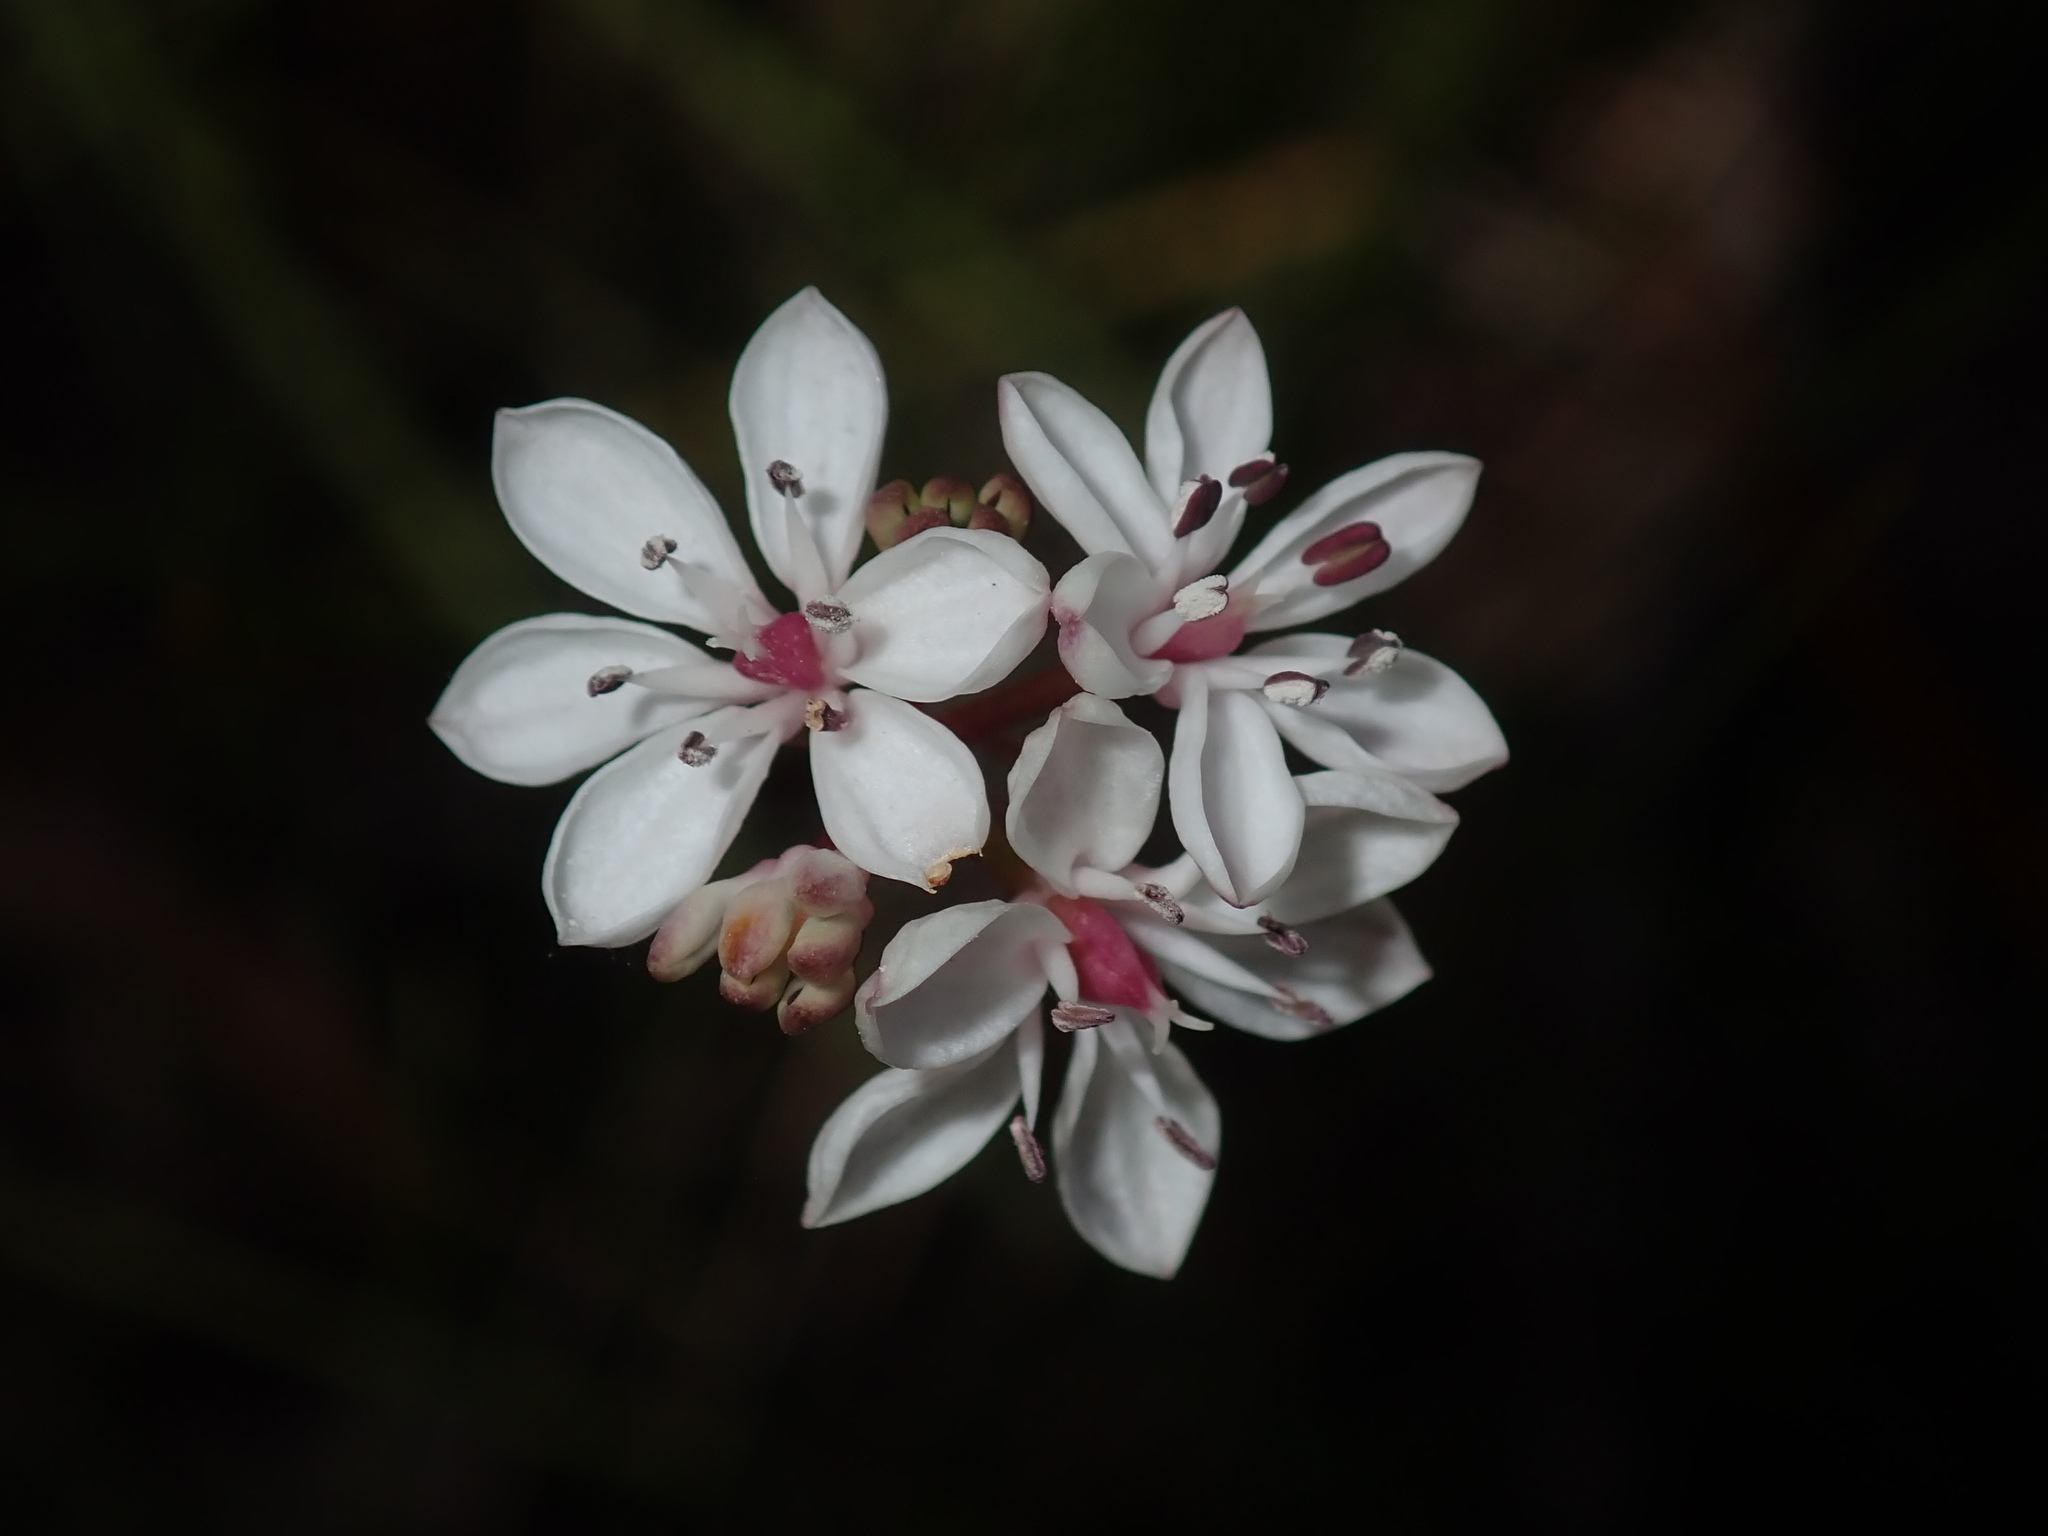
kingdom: Plantae
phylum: Tracheophyta
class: Liliopsida
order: Liliales
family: Colchicaceae
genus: Burchardia
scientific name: Burchardia umbellata
